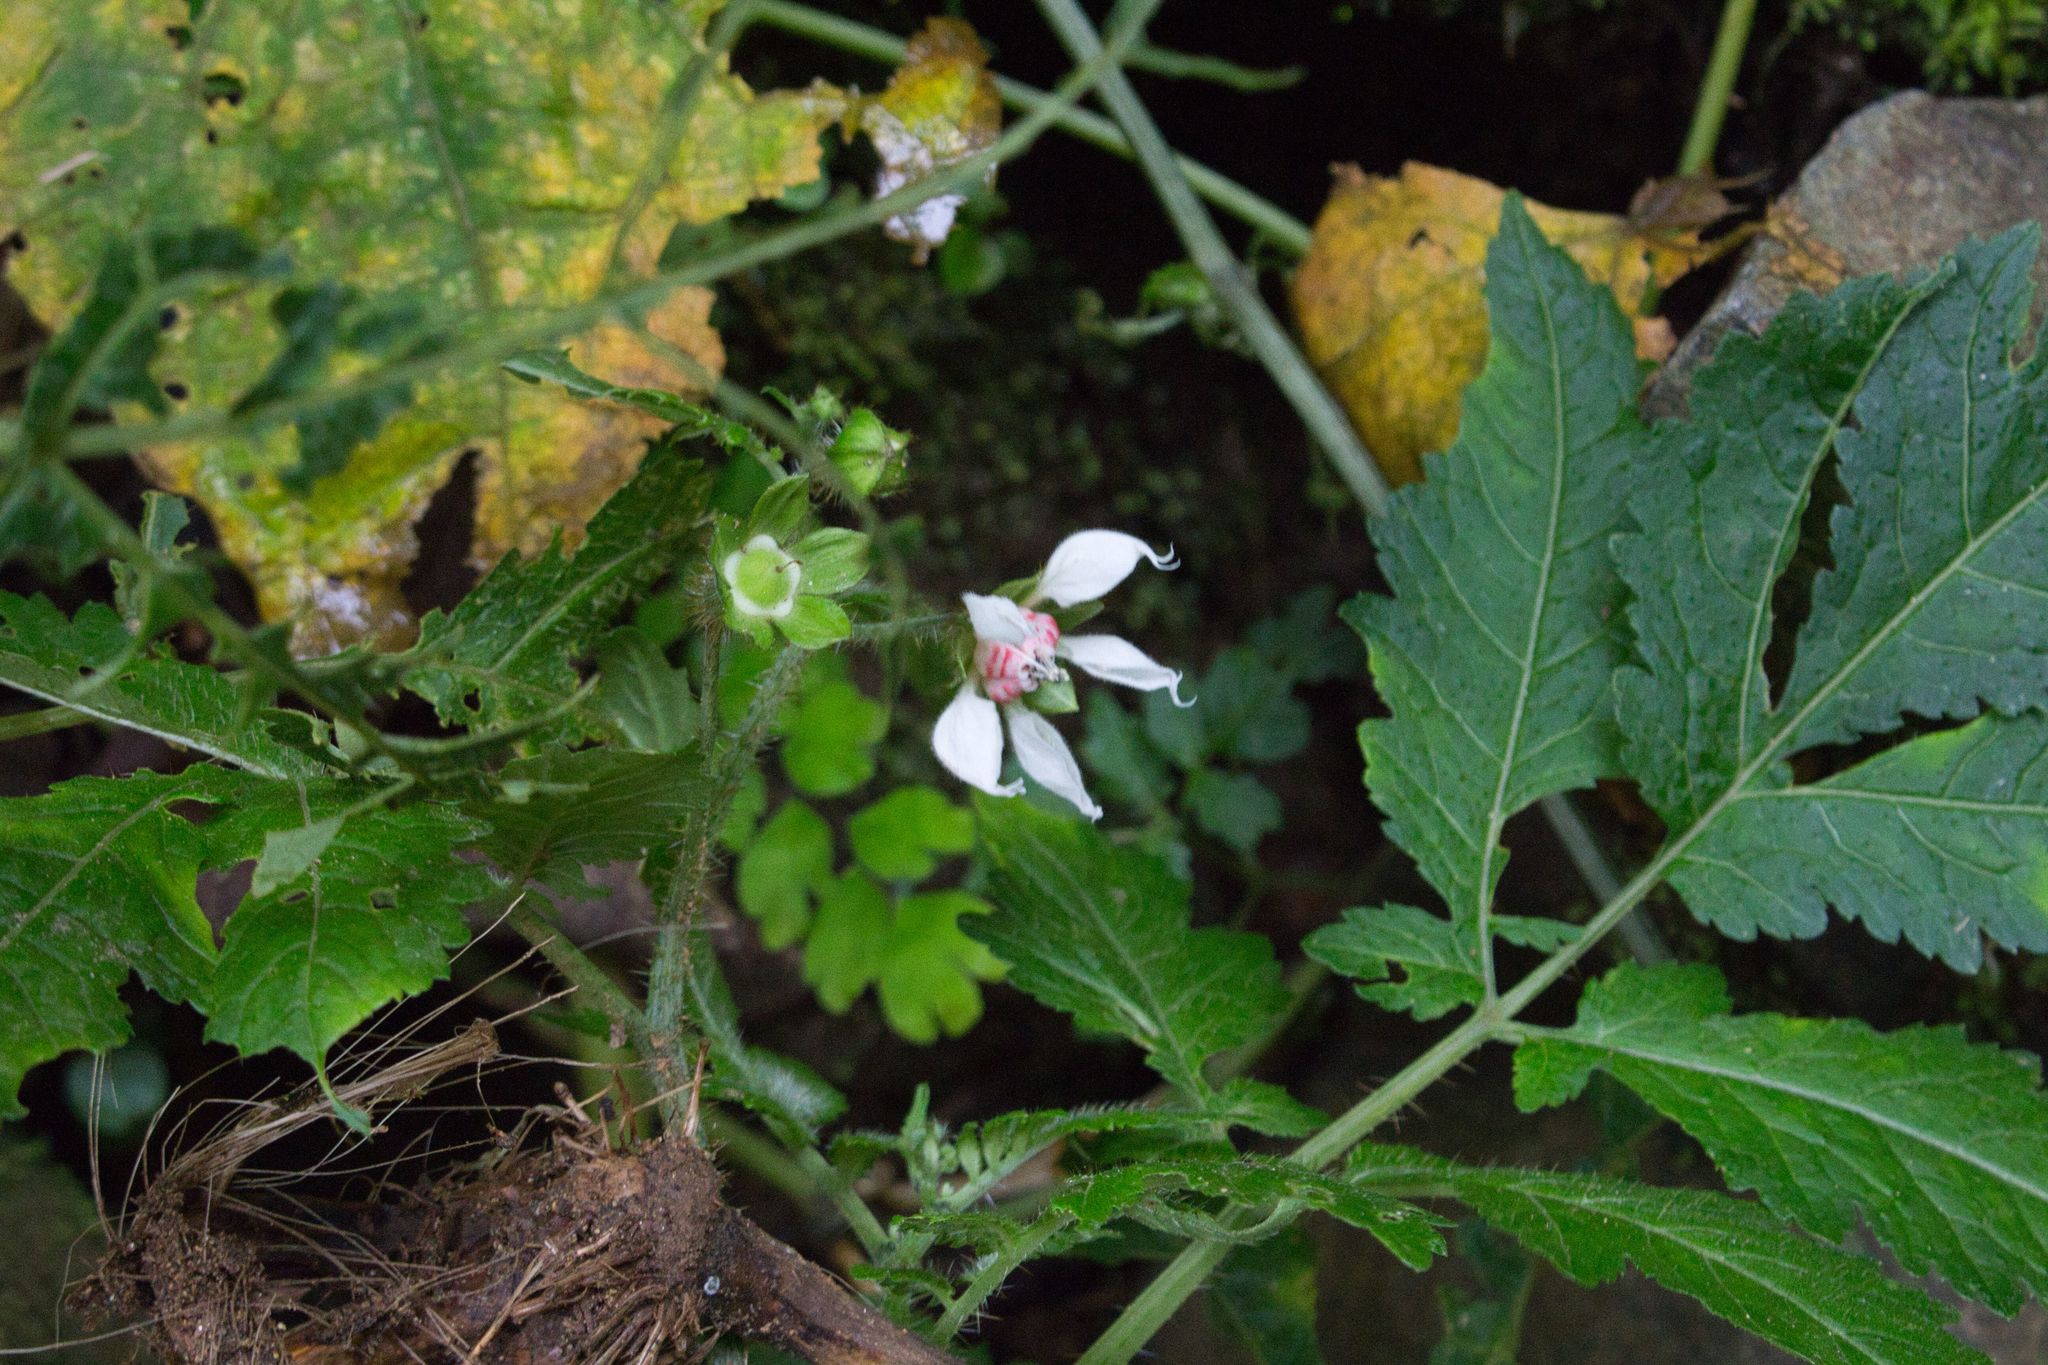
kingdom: Plantae
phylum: Tracheophyta
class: Magnoliopsida
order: Cornales
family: Loasaceae
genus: Nasa
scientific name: Nasa triphylla
